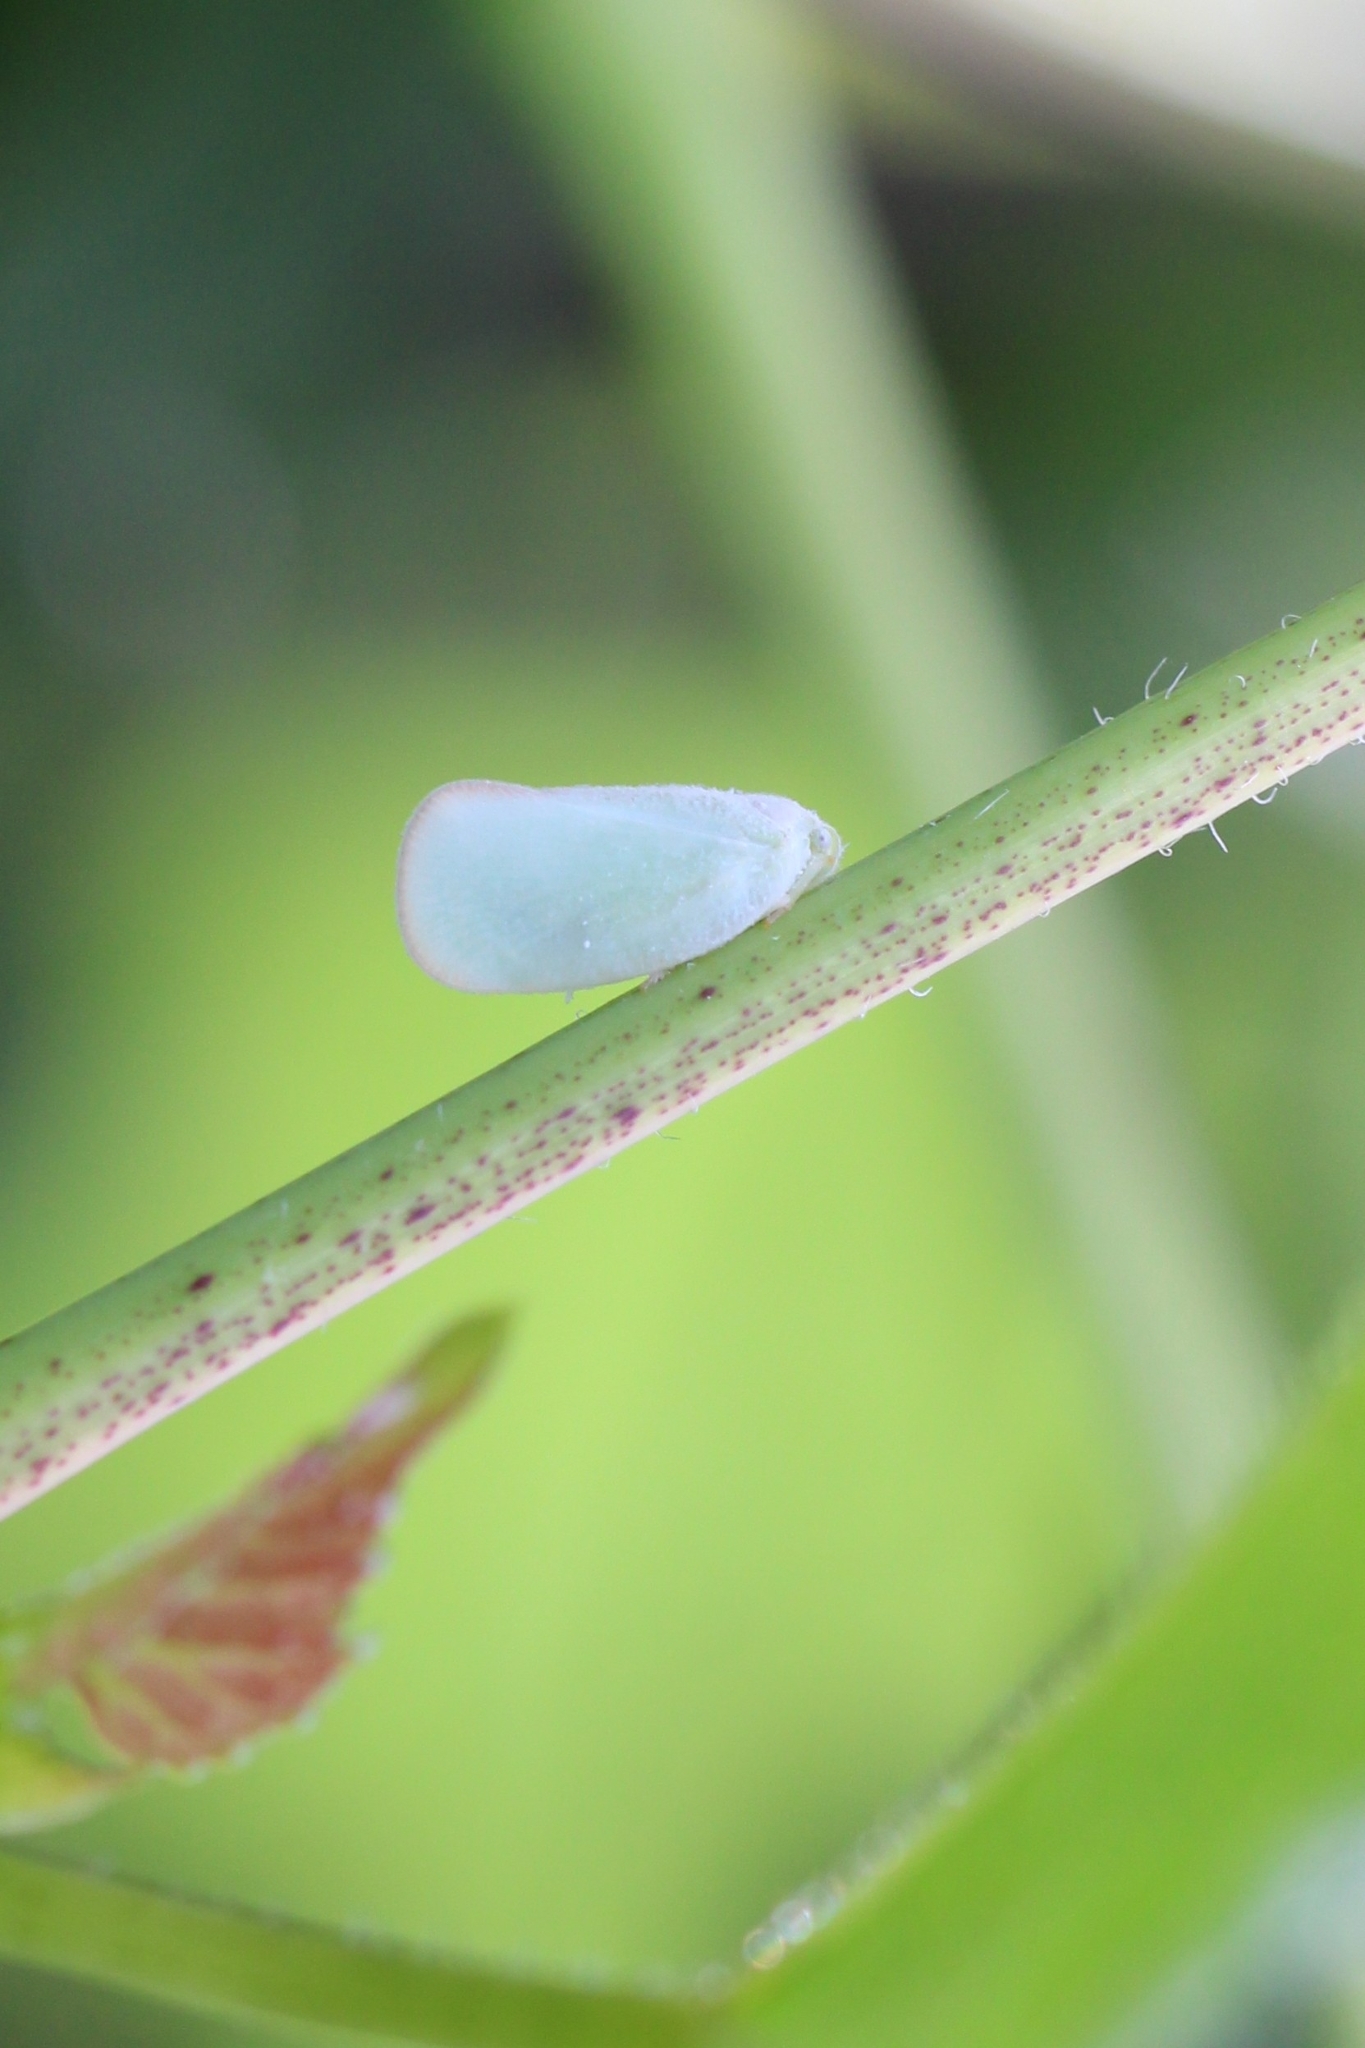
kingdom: Animalia
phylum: Arthropoda
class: Insecta
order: Hemiptera
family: Flatidae
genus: Ormenoides
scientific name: Ormenoides venusta
